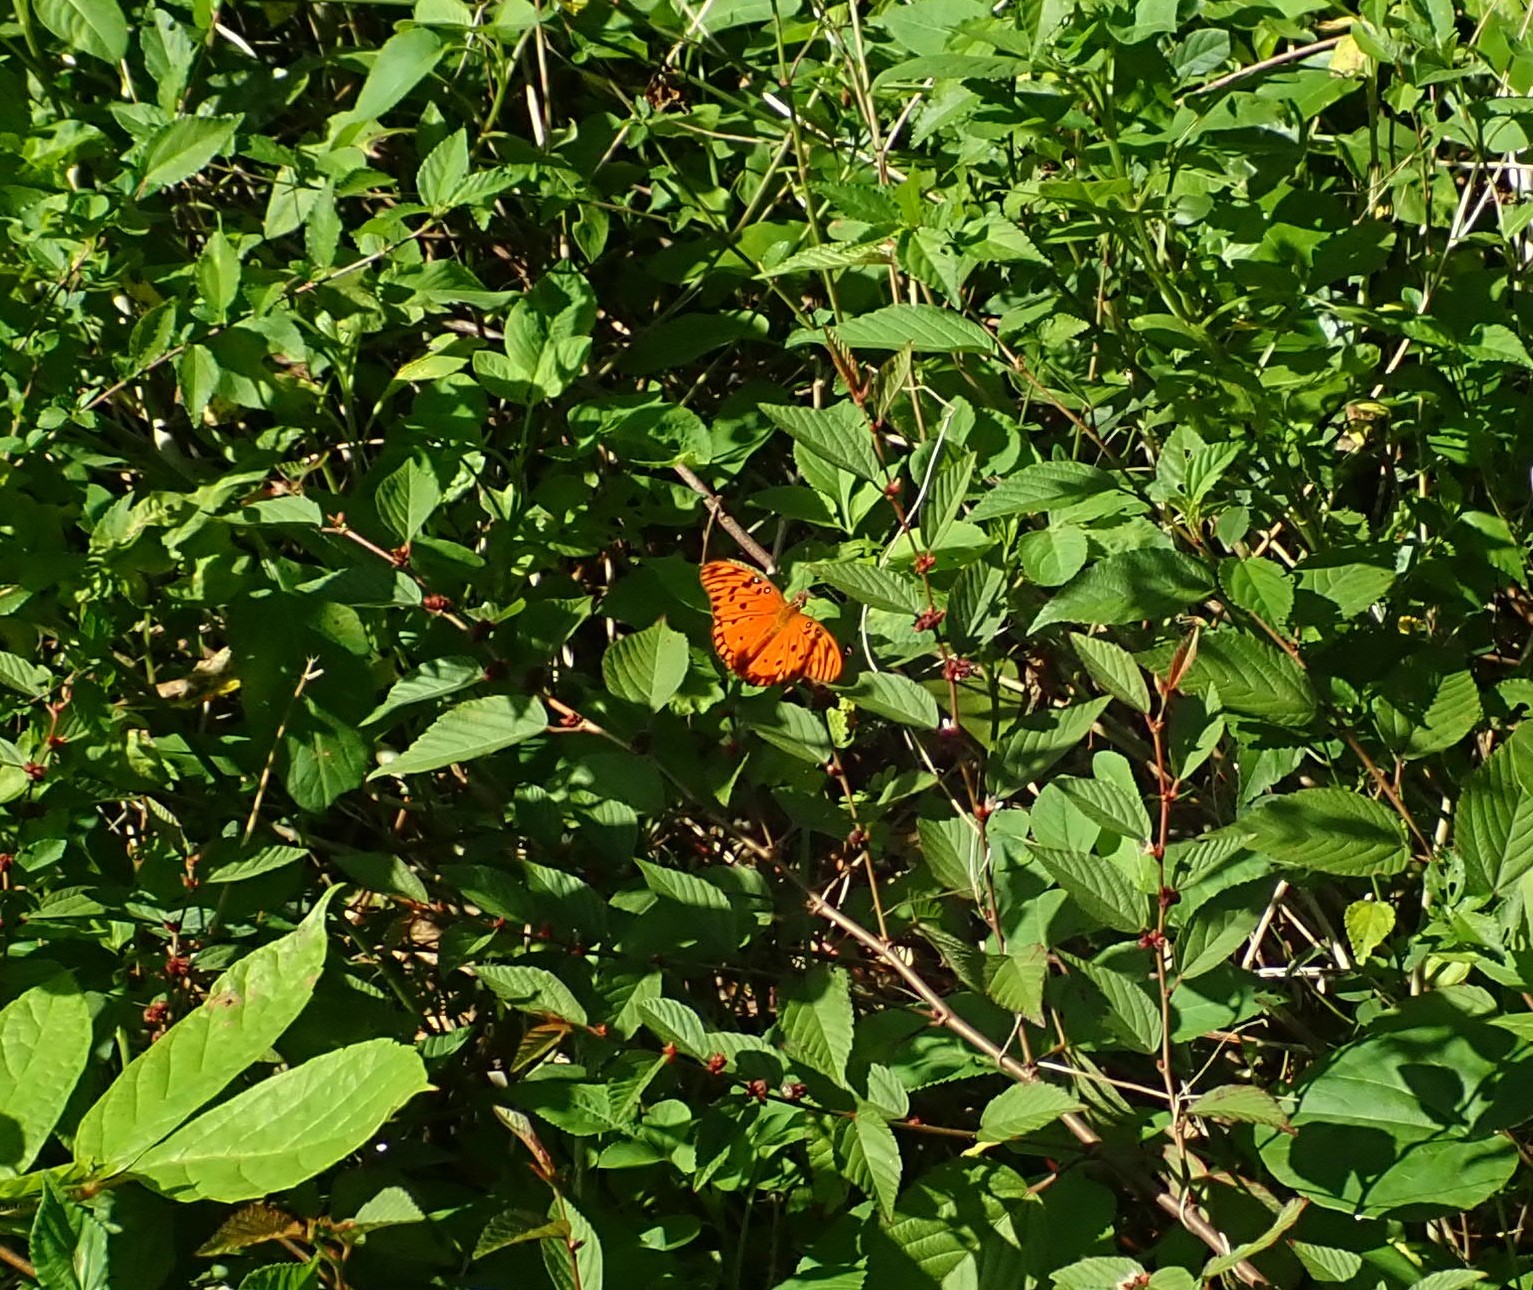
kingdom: Animalia
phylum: Arthropoda
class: Insecta
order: Lepidoptera
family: Nymphalidae
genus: Dione
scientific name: Dione vanillae
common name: Gulf fritillary
